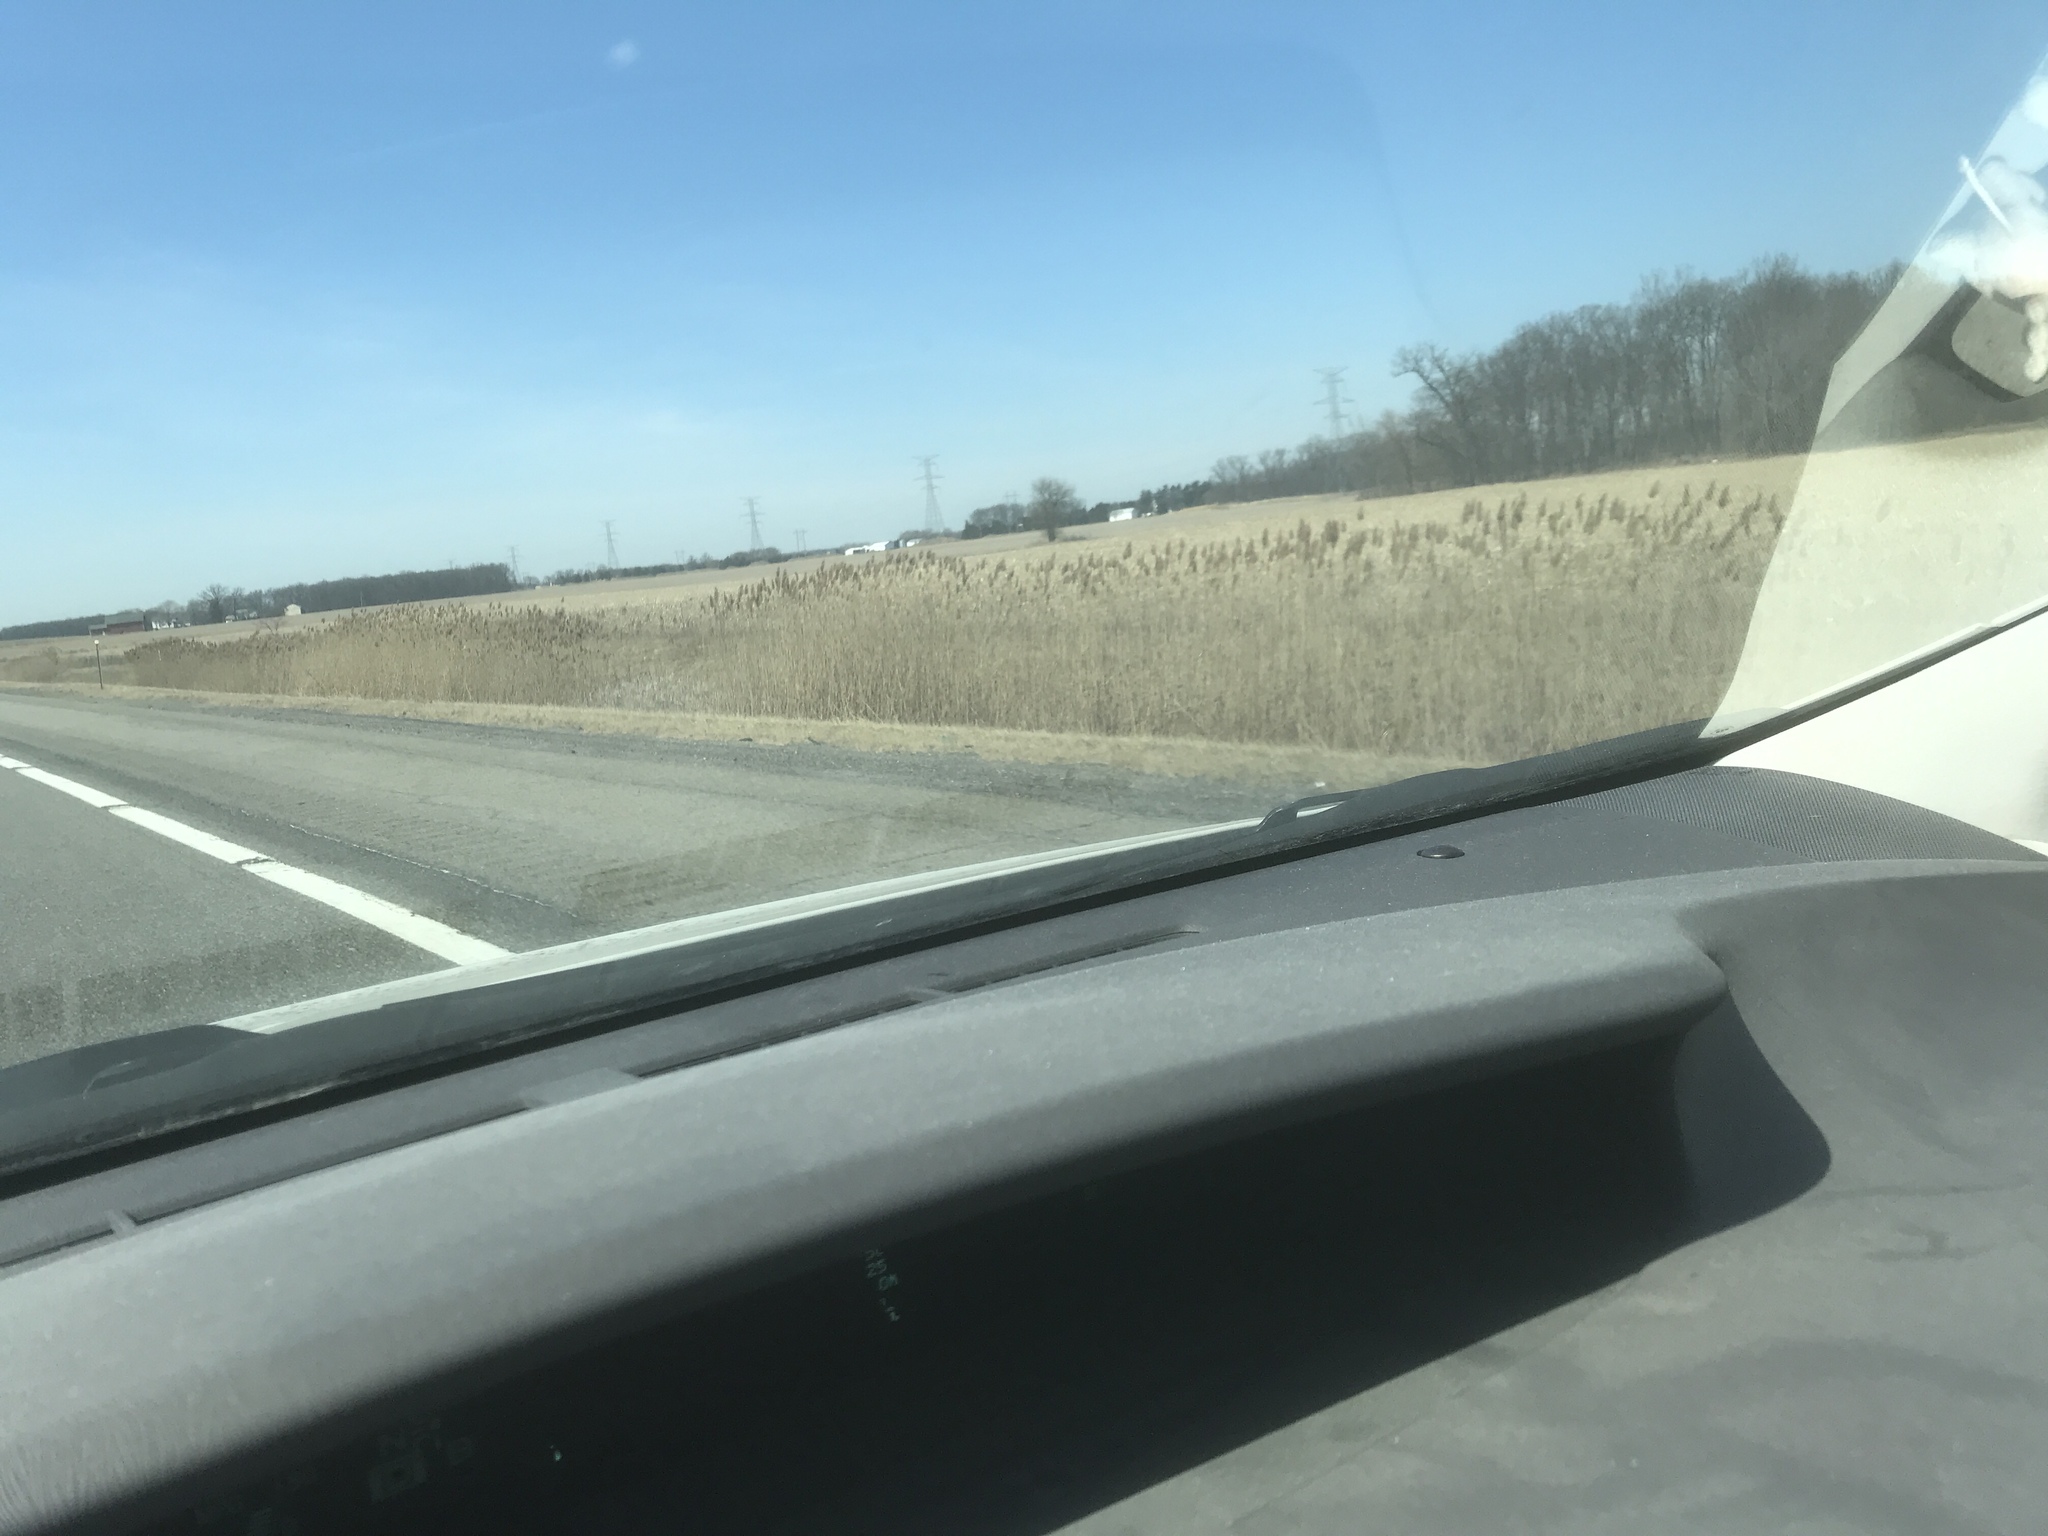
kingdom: Plantae
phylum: Tracheophyta
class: Liliopsida
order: Poales
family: Poaceae
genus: Phragmites
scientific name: Phragmites australis
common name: Common reed
